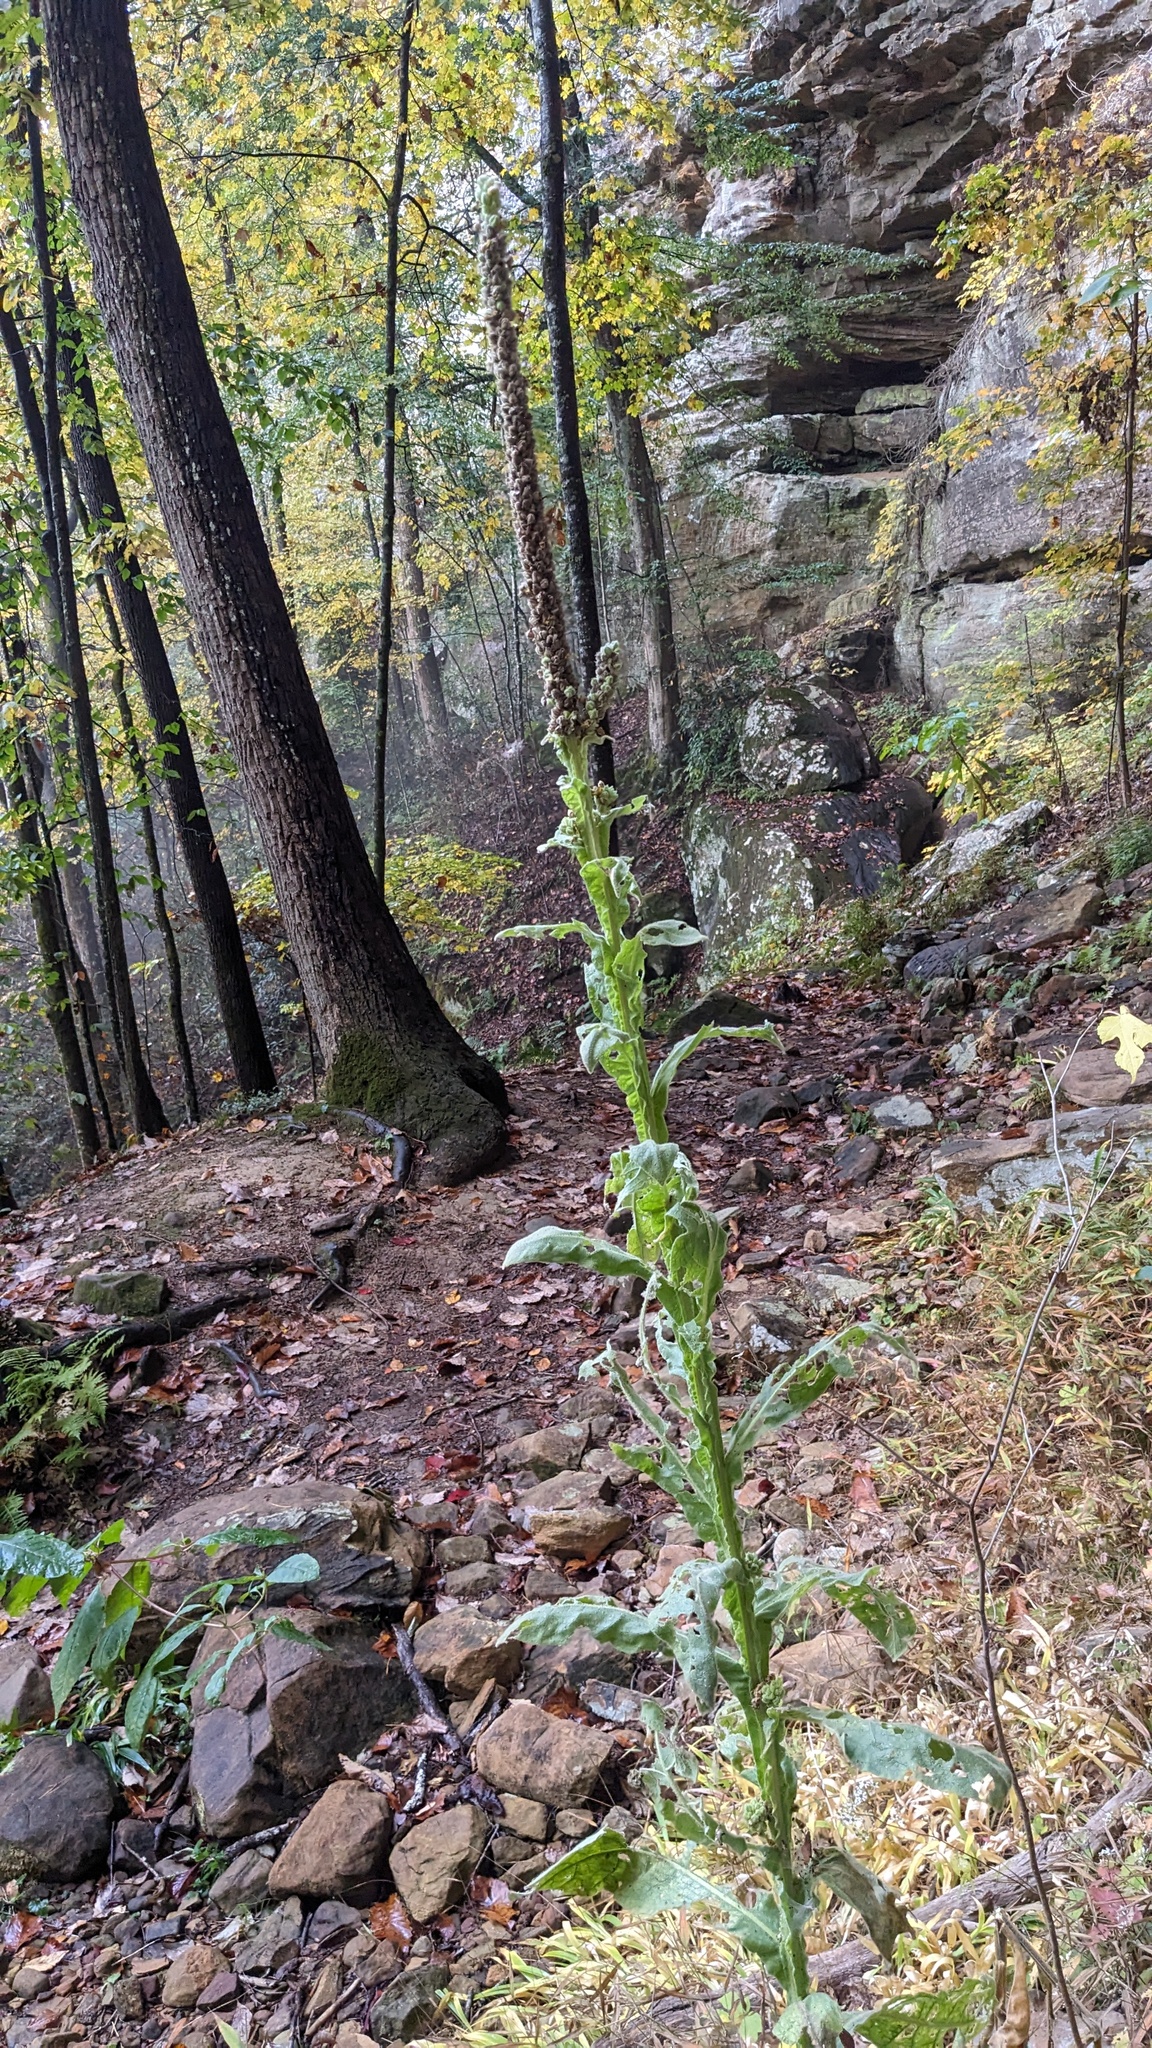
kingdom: Plantae
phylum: Tracheophyta
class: Magnoliopsida
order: Lamiales
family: Scrophulariaceae
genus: Verbascum
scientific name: Verbascum thapsus
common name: Common mullein
